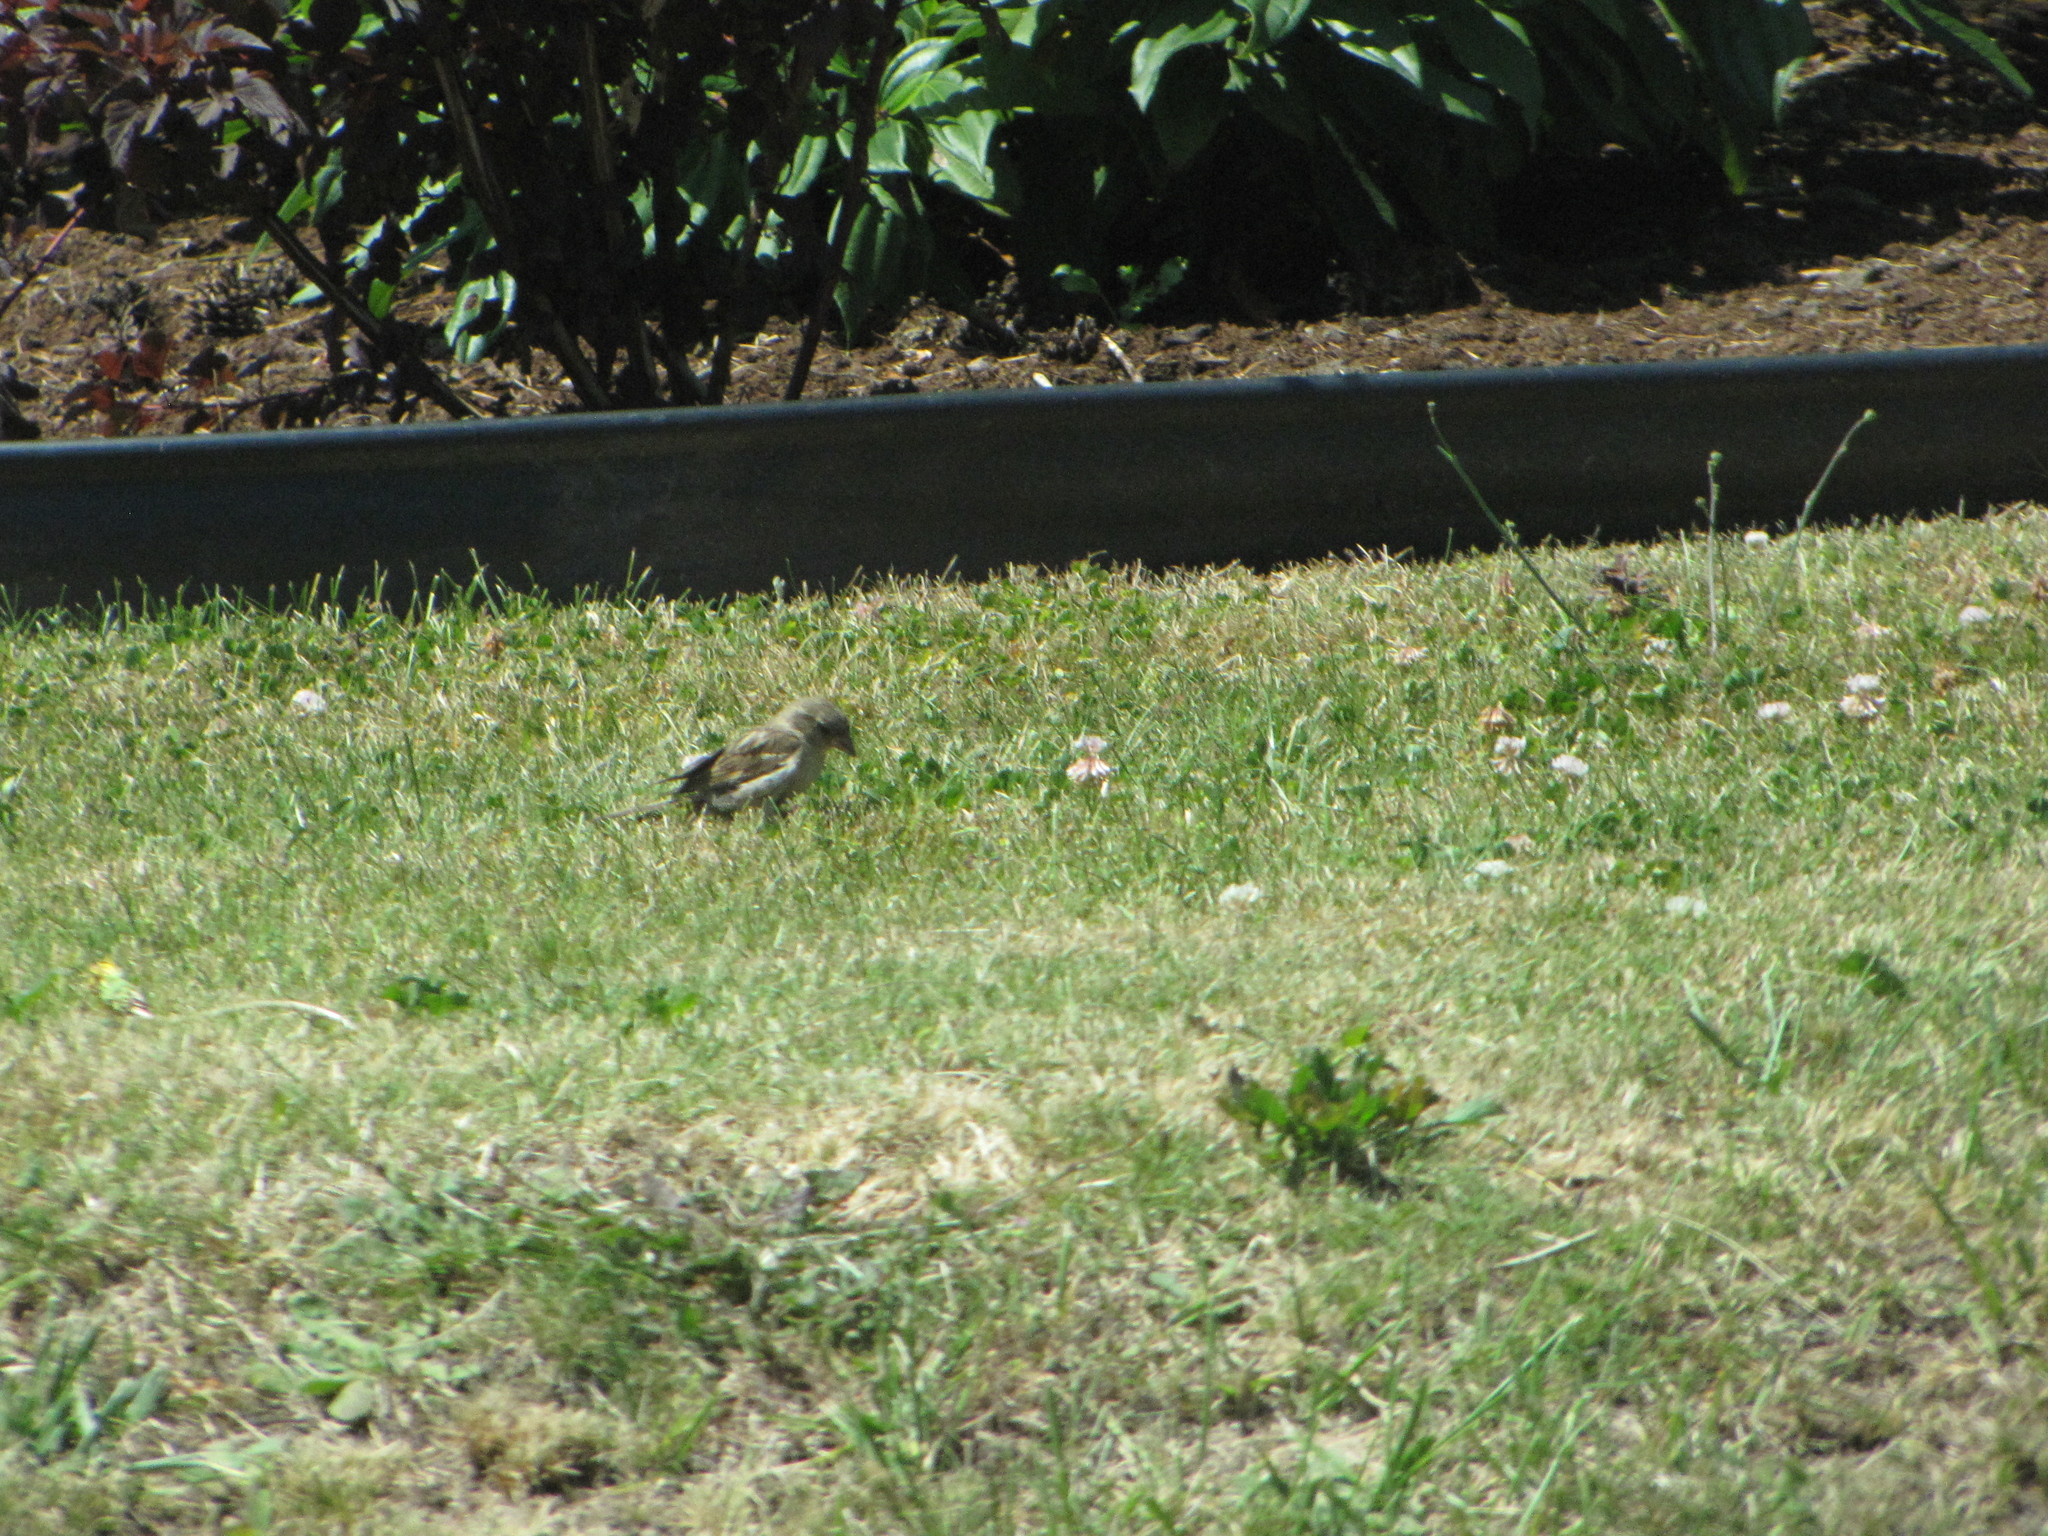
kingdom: Animalia
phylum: Chordata
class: Aves
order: Passeriformes
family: Passeridae
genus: Passer
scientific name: Passer domesticus
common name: House sparrow
